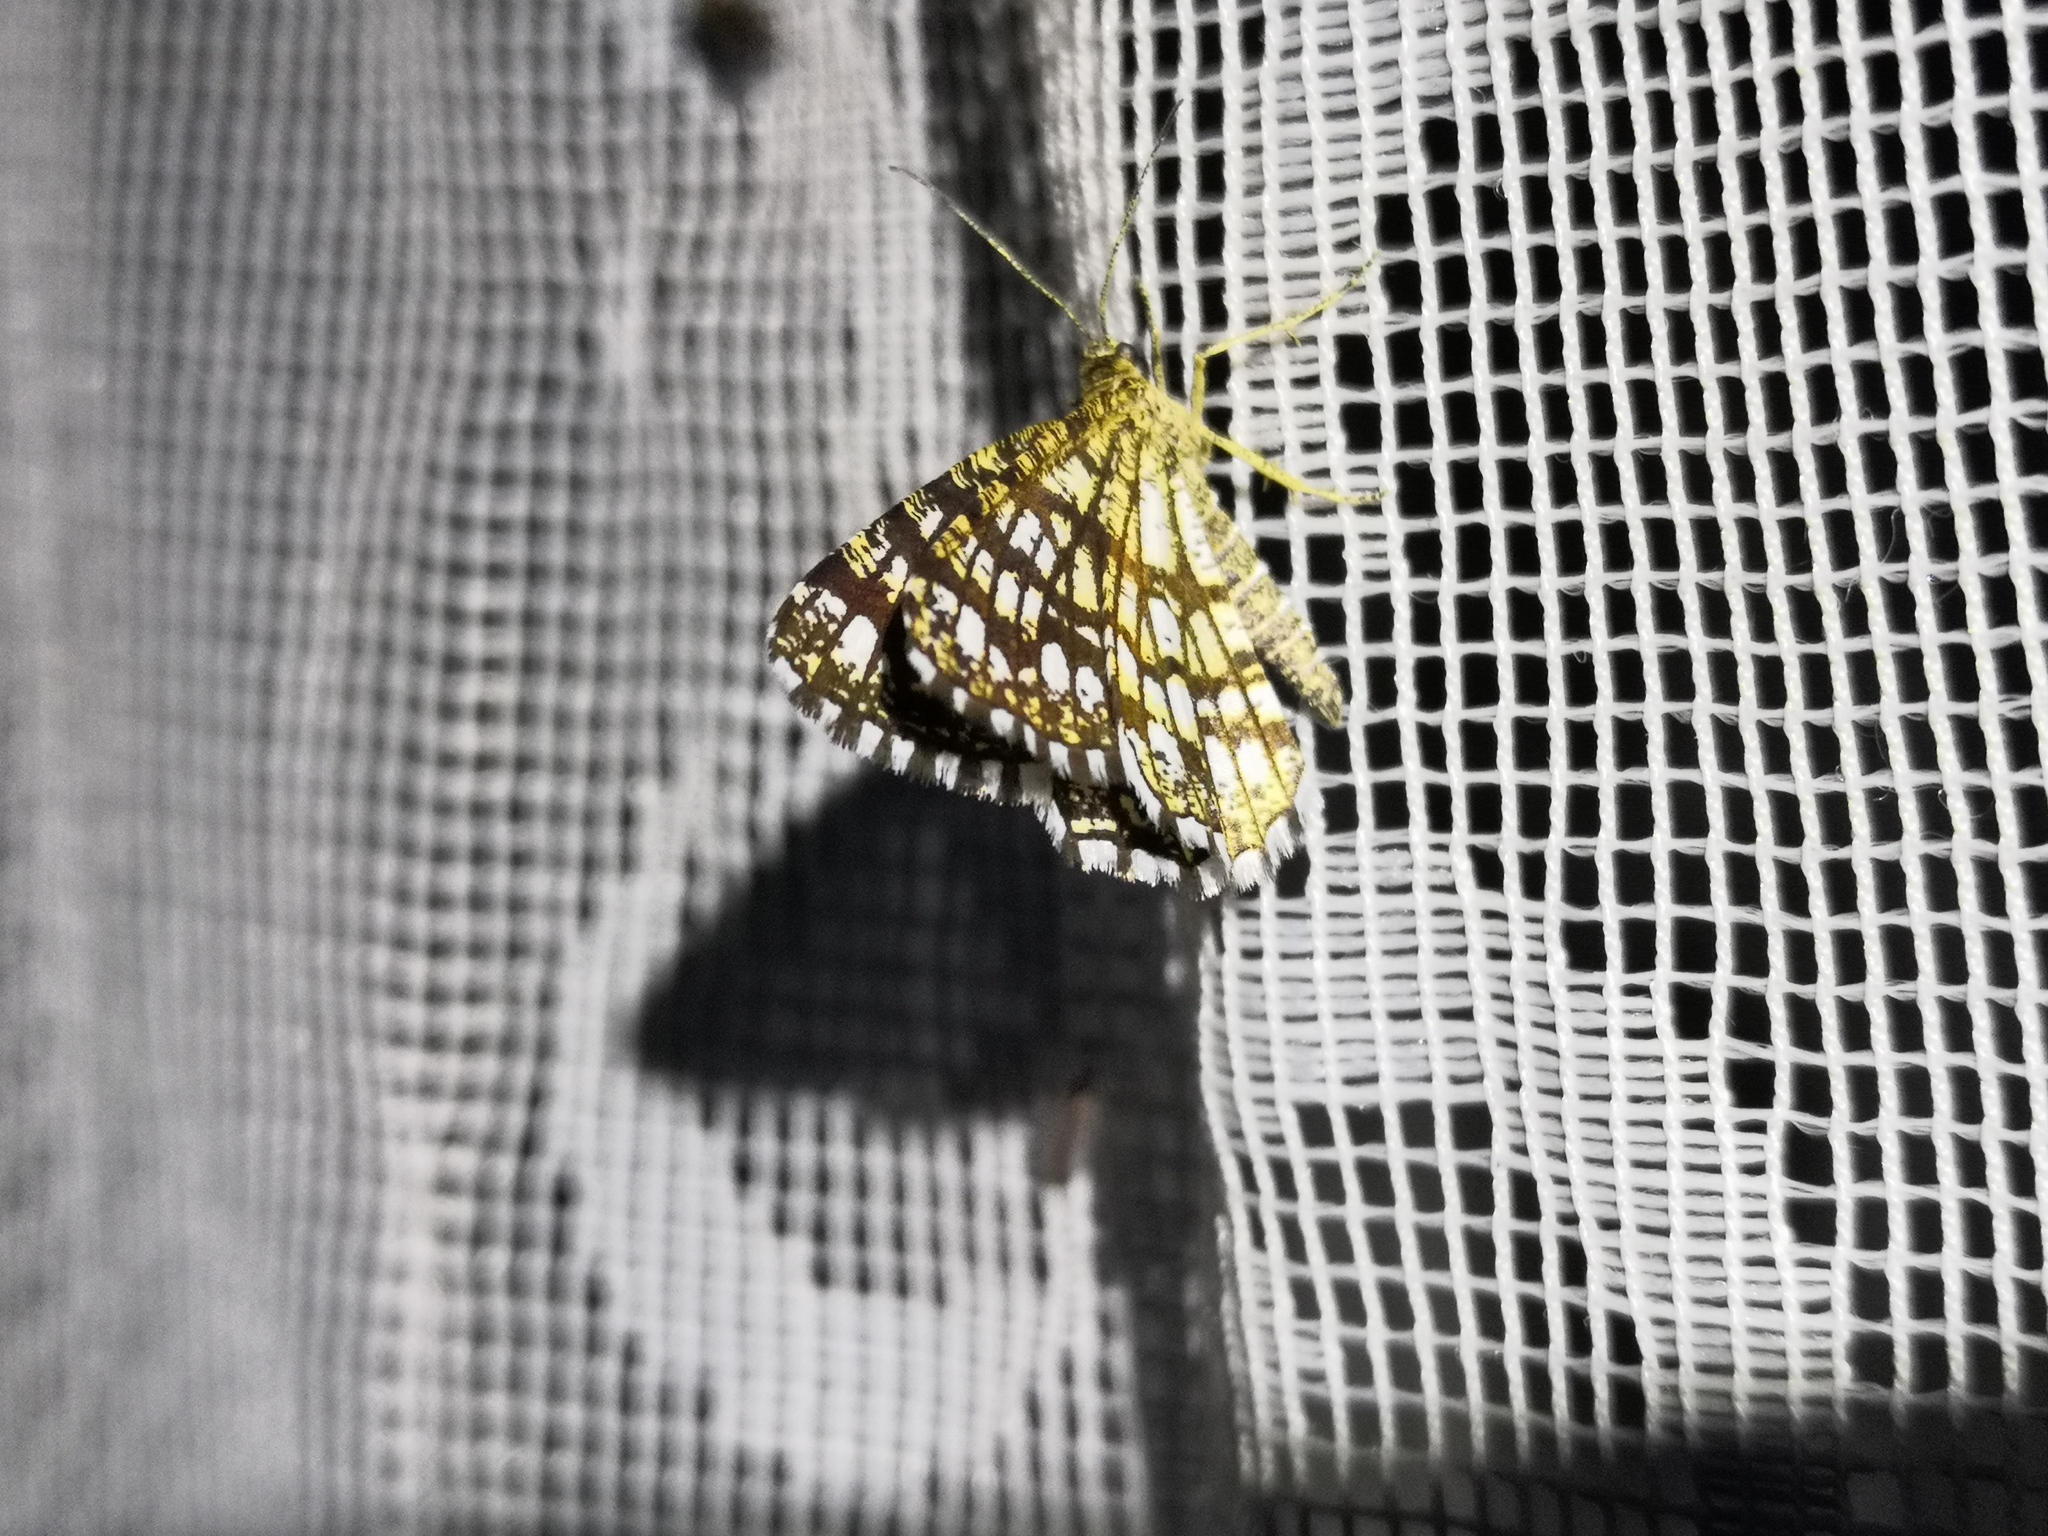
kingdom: Animalia
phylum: Arthropoda
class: Insecta
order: Lepidoptera
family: Geometridae
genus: Chiasmia
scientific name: Chiasmia clathrata
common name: Latticed heath
